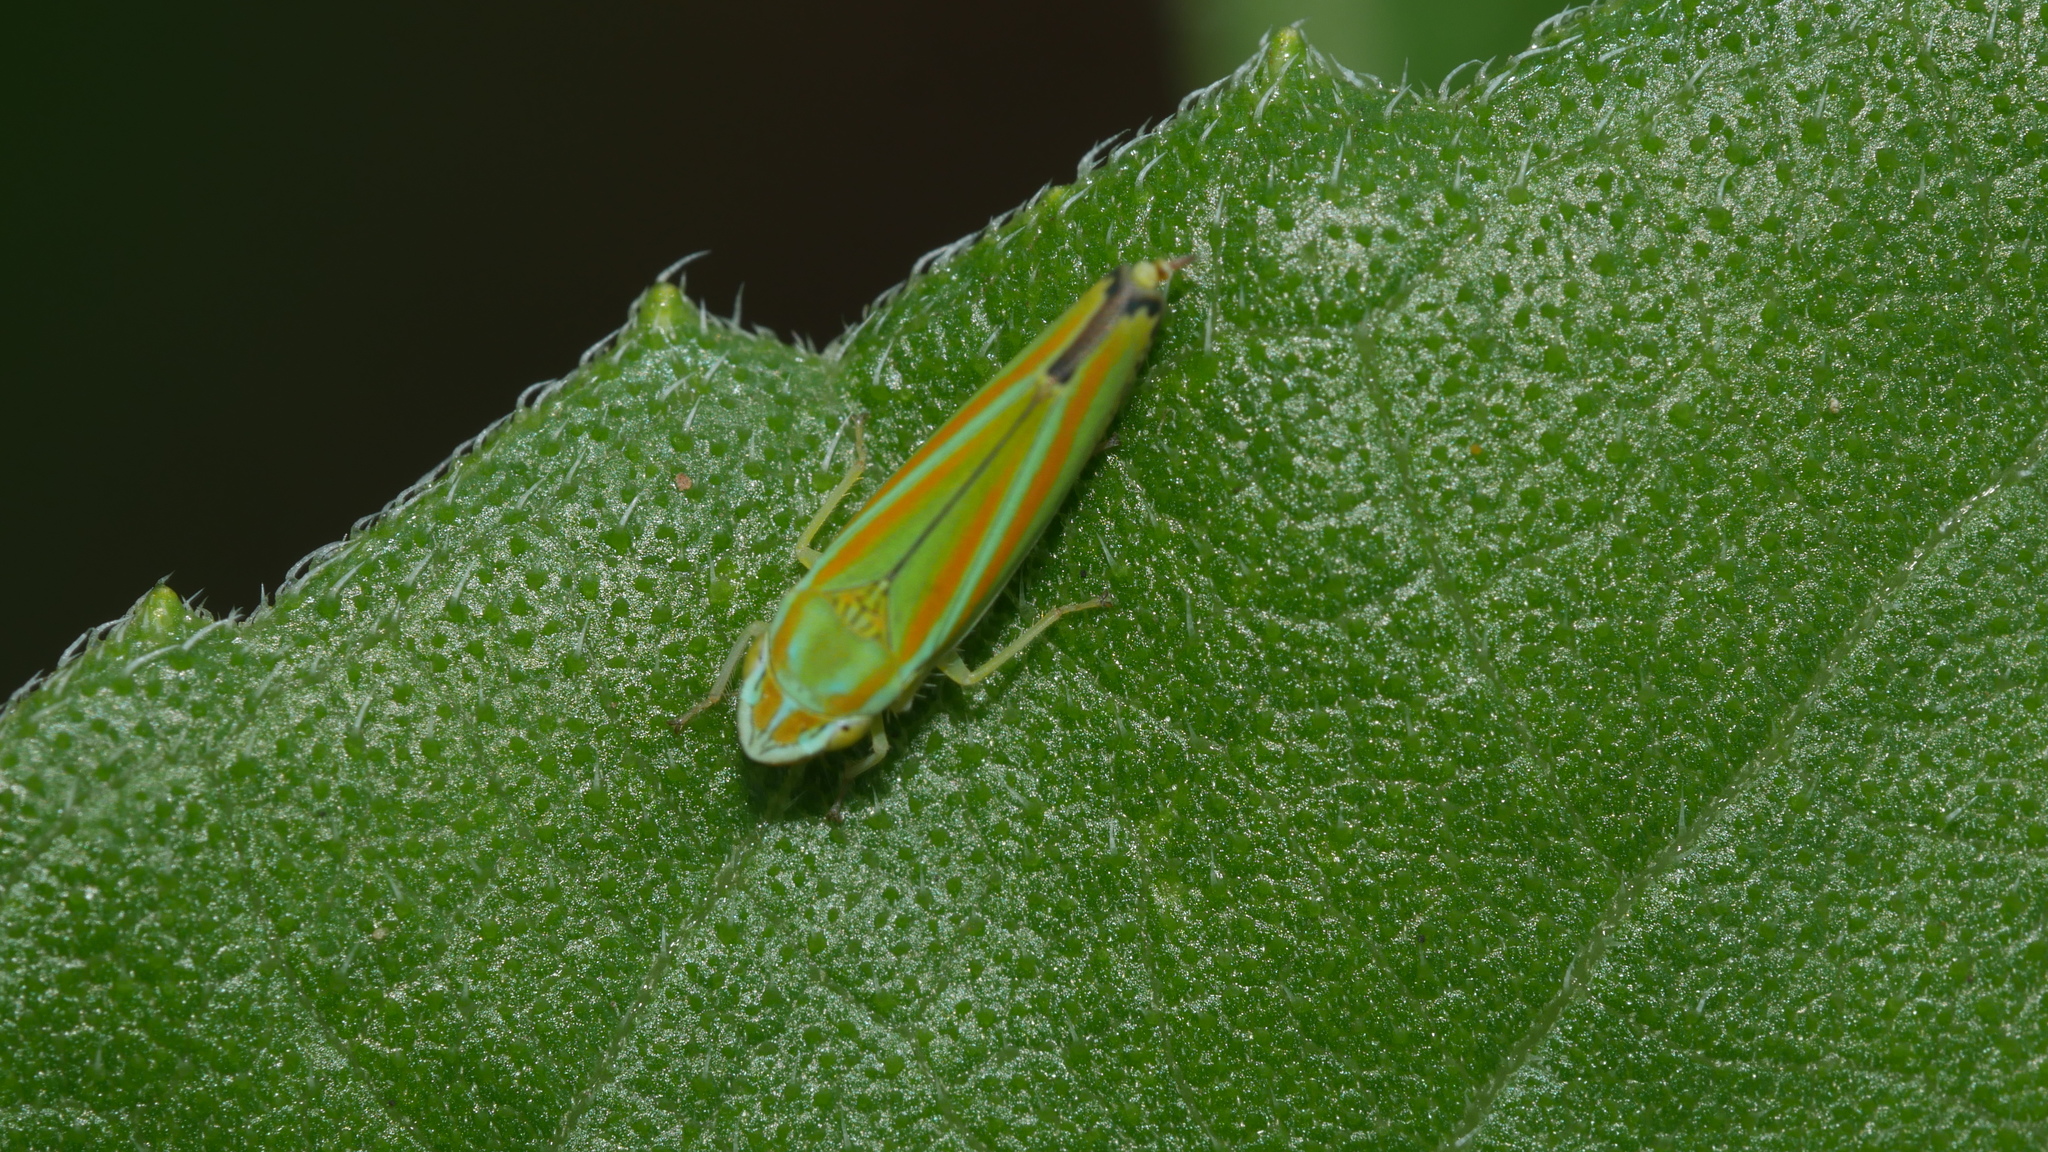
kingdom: Animalia
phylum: Arthropoda
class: Insecta
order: Hemiptera
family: Cicadellidae
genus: Graphocephala
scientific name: Graphocephala versuta
